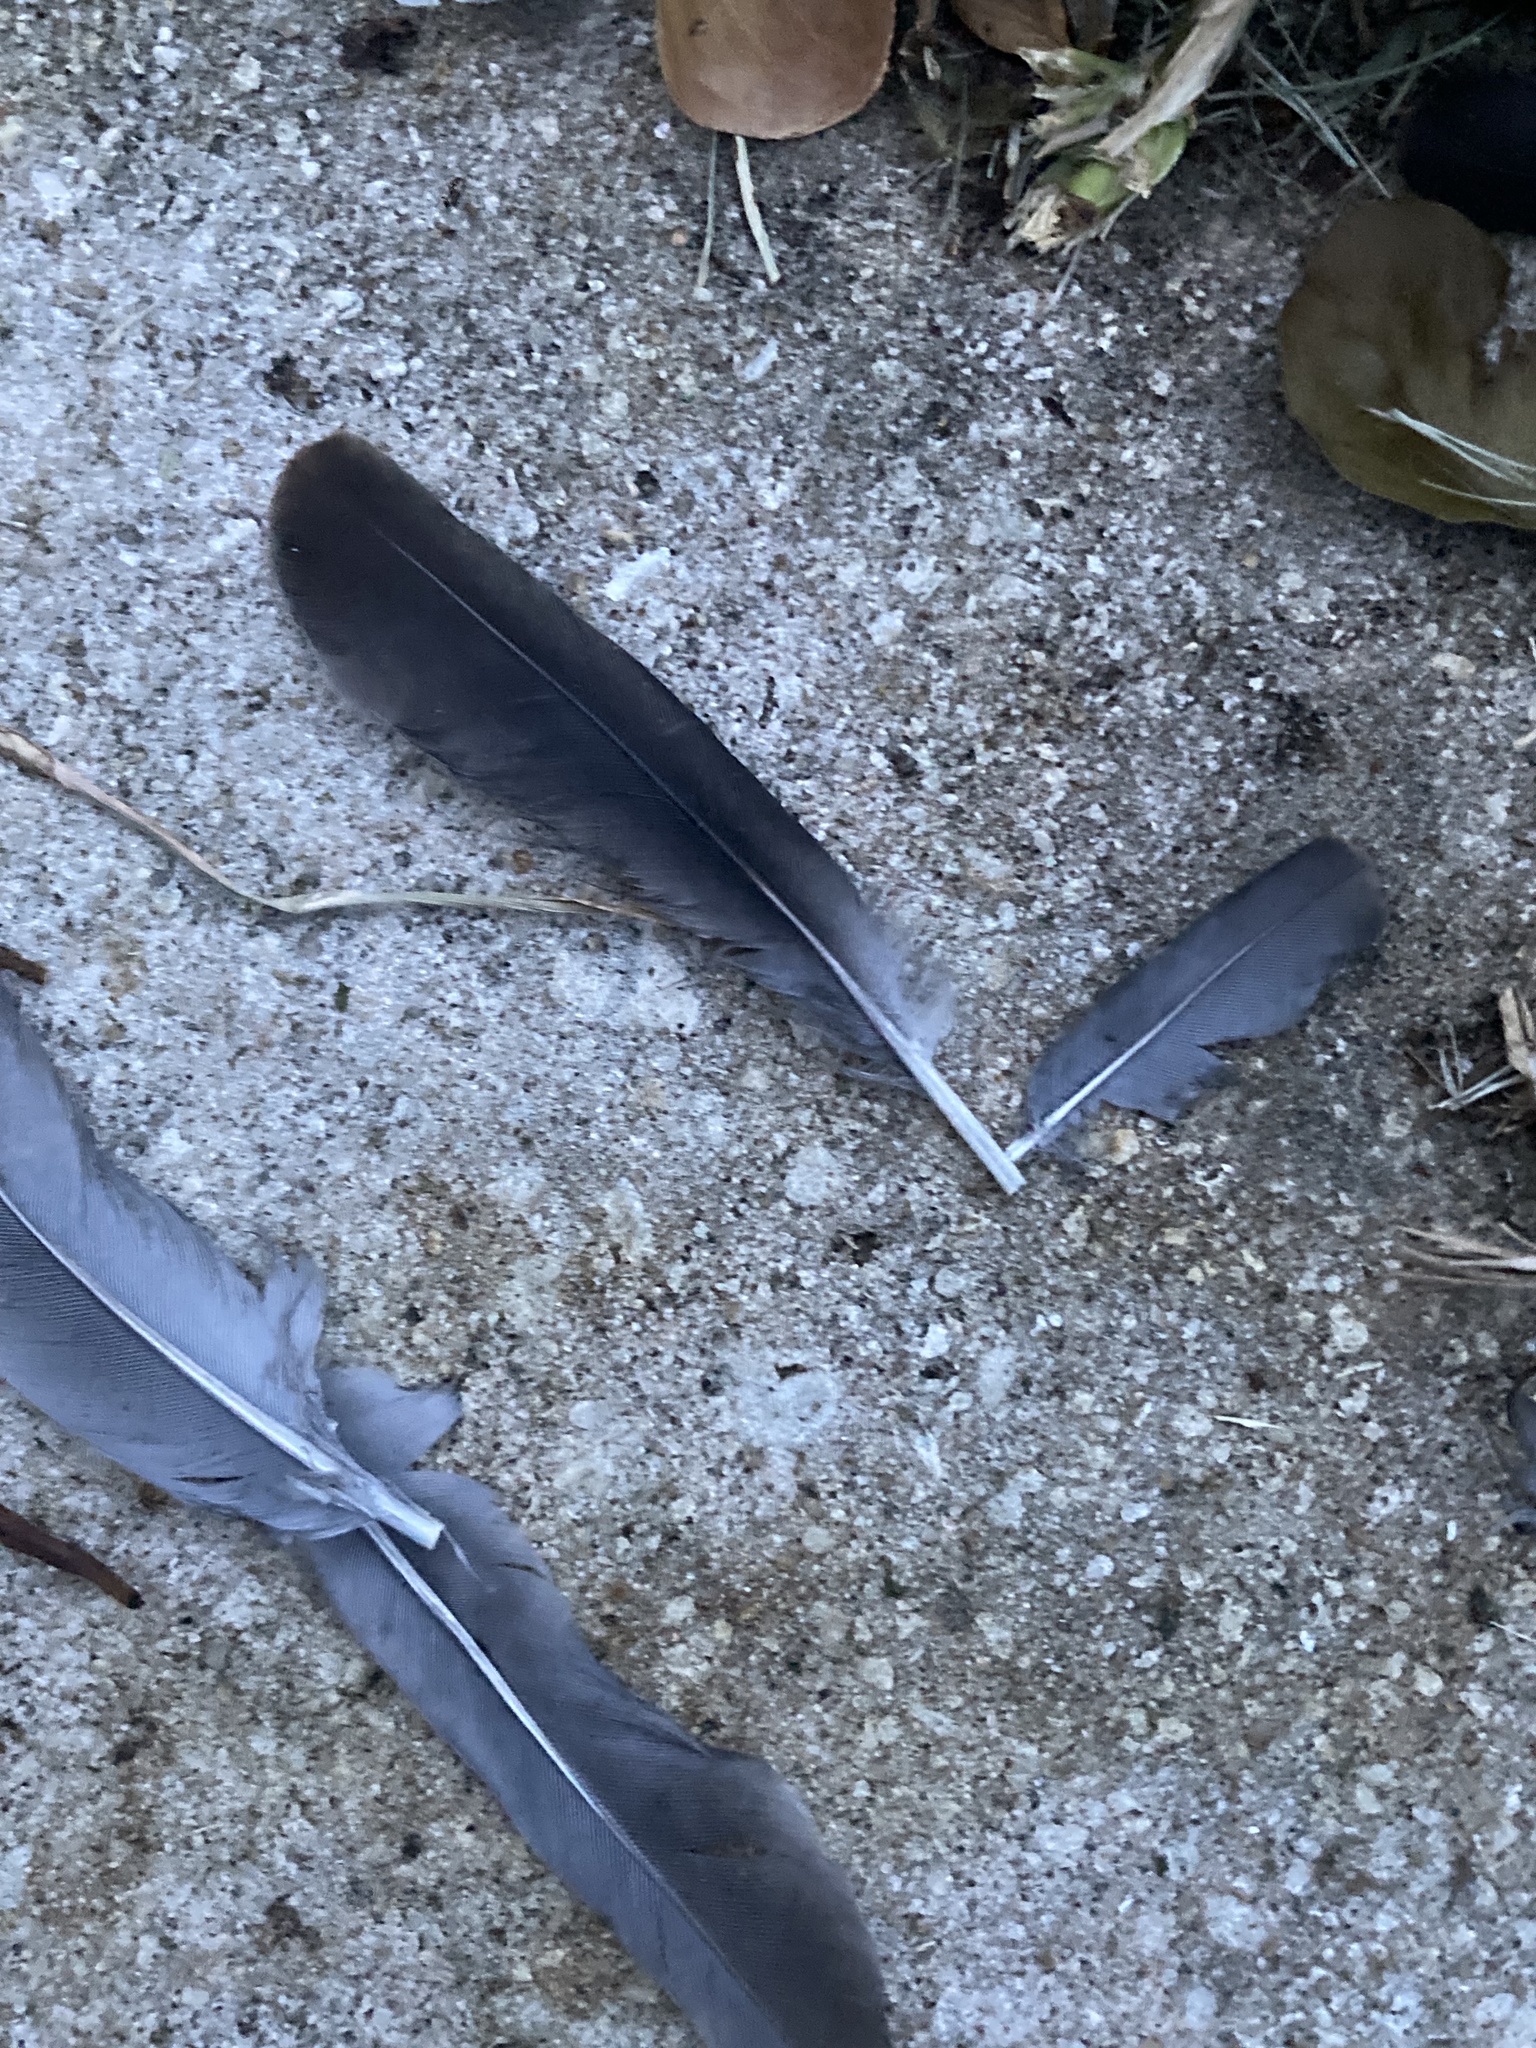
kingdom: Animalia
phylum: Chordata
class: Aves
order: Columbiformes
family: Columbidae
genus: Zenaida
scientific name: Zenaida asiatica
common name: White-winged dove
